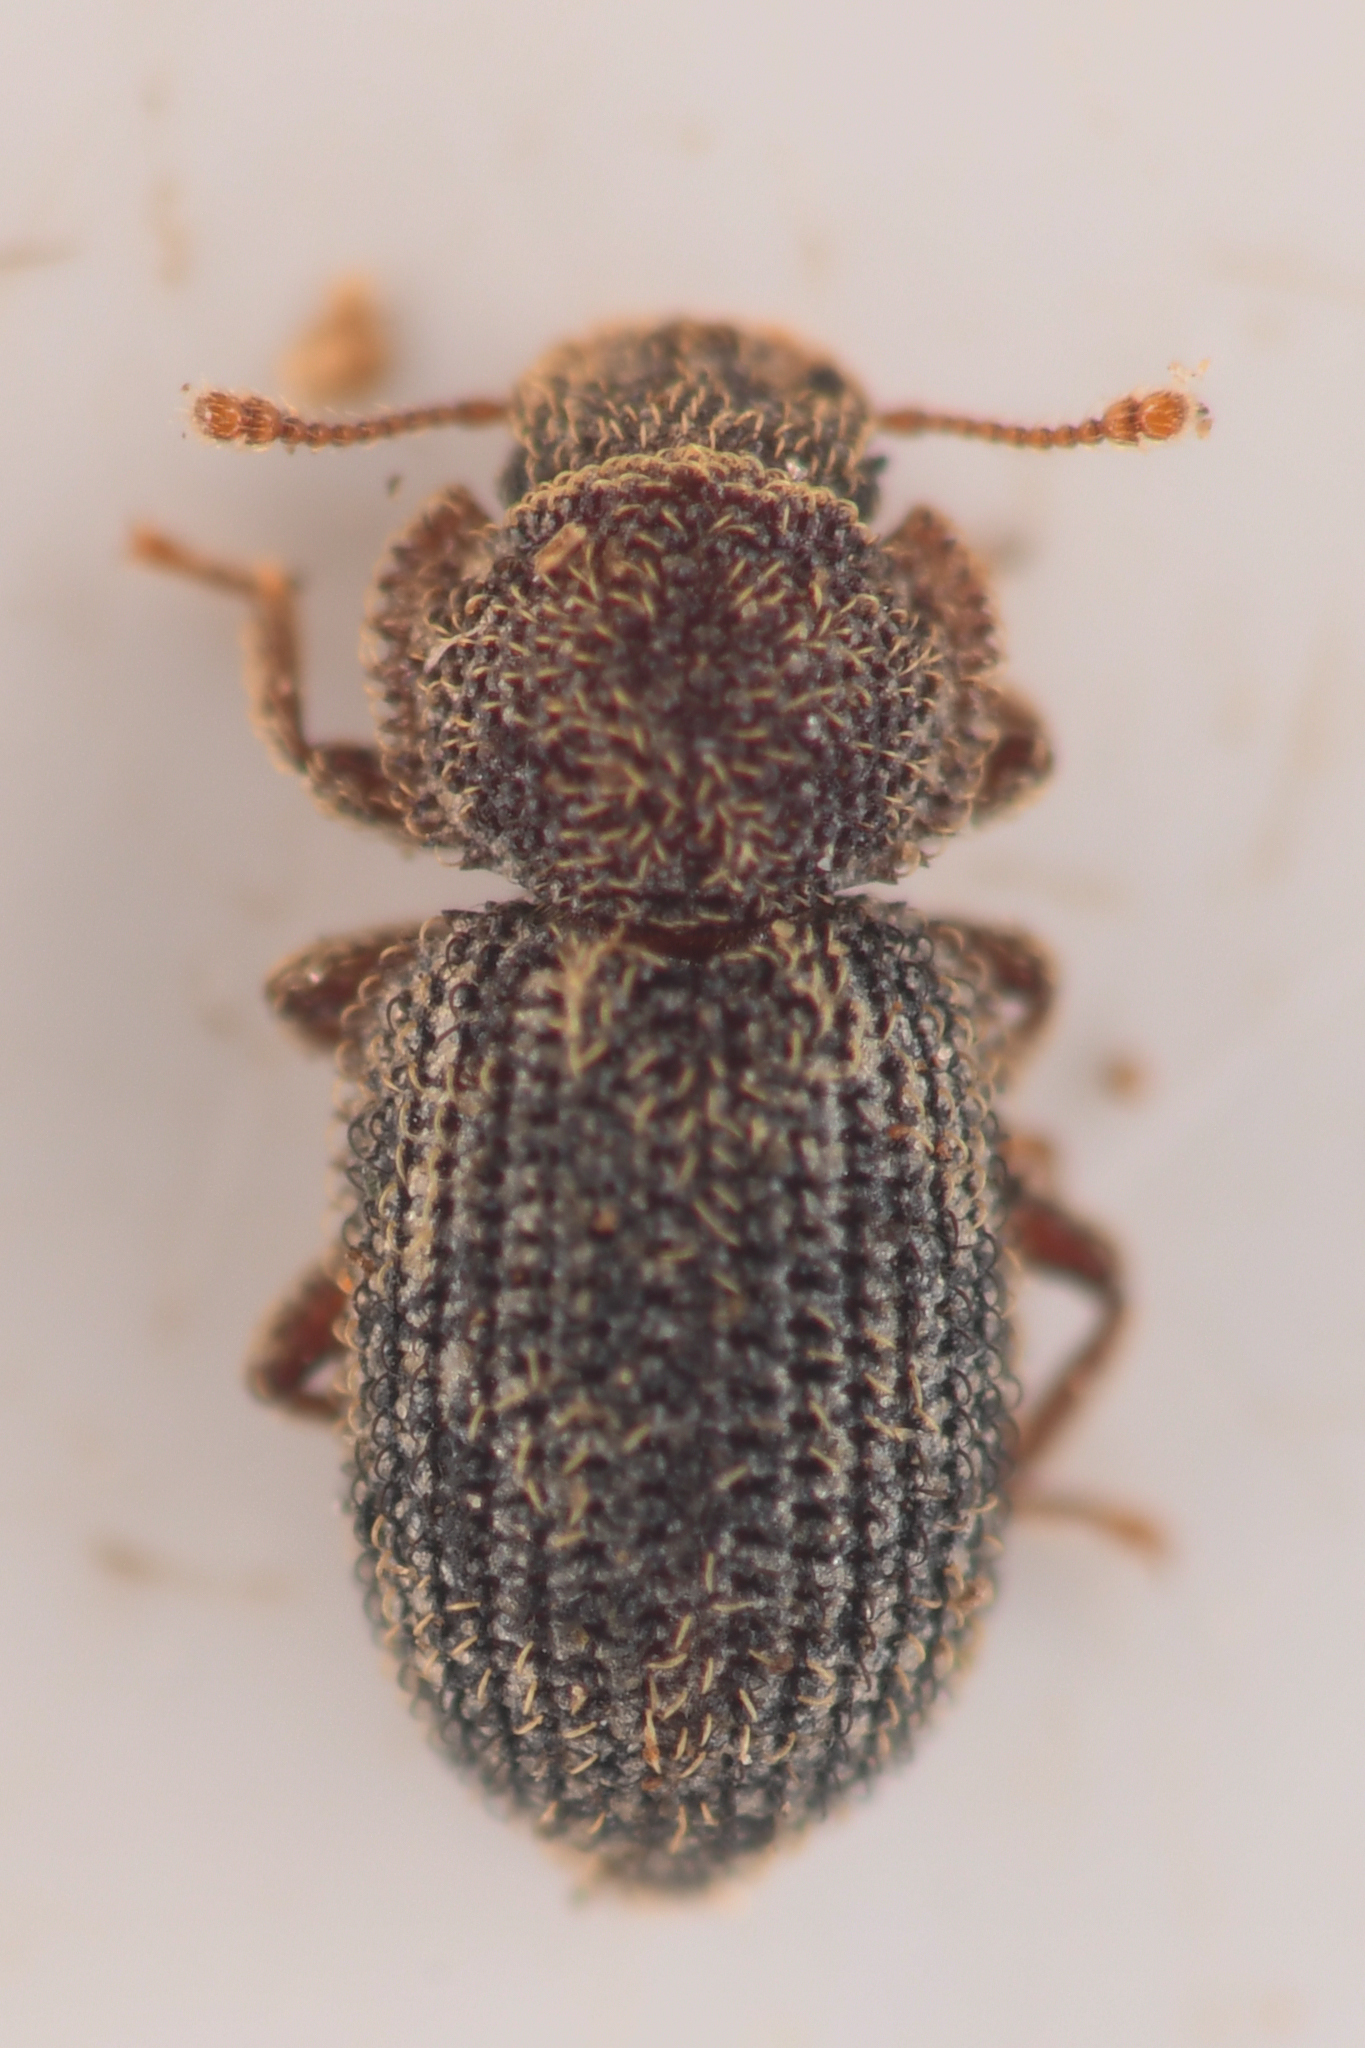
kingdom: Animalia
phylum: Arthropoda
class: Insecta
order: Coleoptera
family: Zopheridae
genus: Coxelus
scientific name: Coxelus serratus
